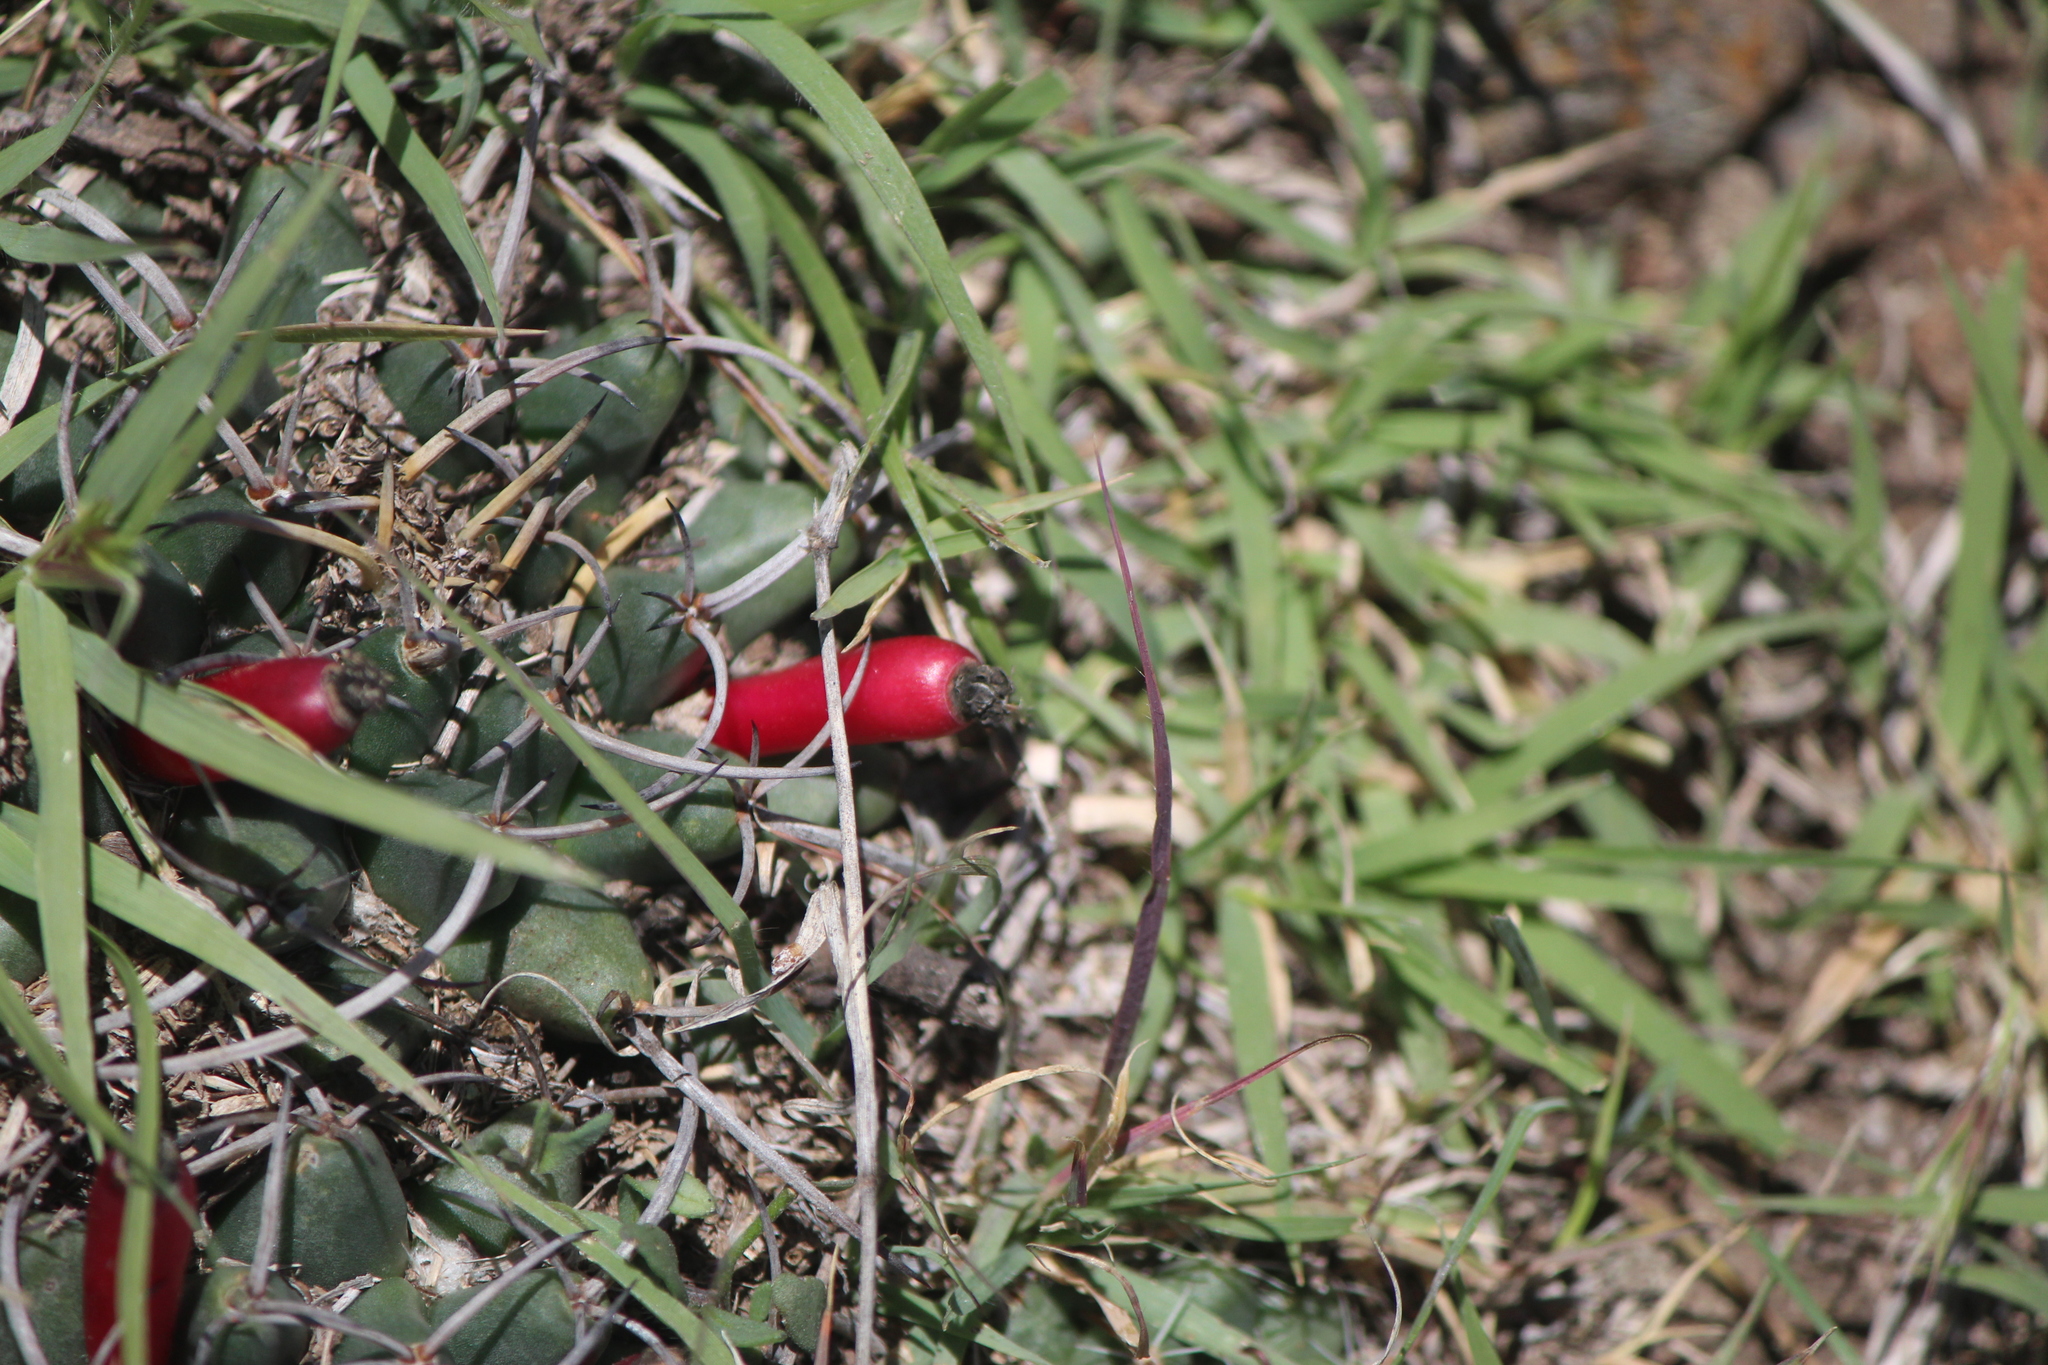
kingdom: Plantae
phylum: Tracheophyta
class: Magnoliopsida
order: Caryophyllales
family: Cactaceae
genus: Mammillaria
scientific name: Mammillaria magnimamma
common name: Mexican pincushion
